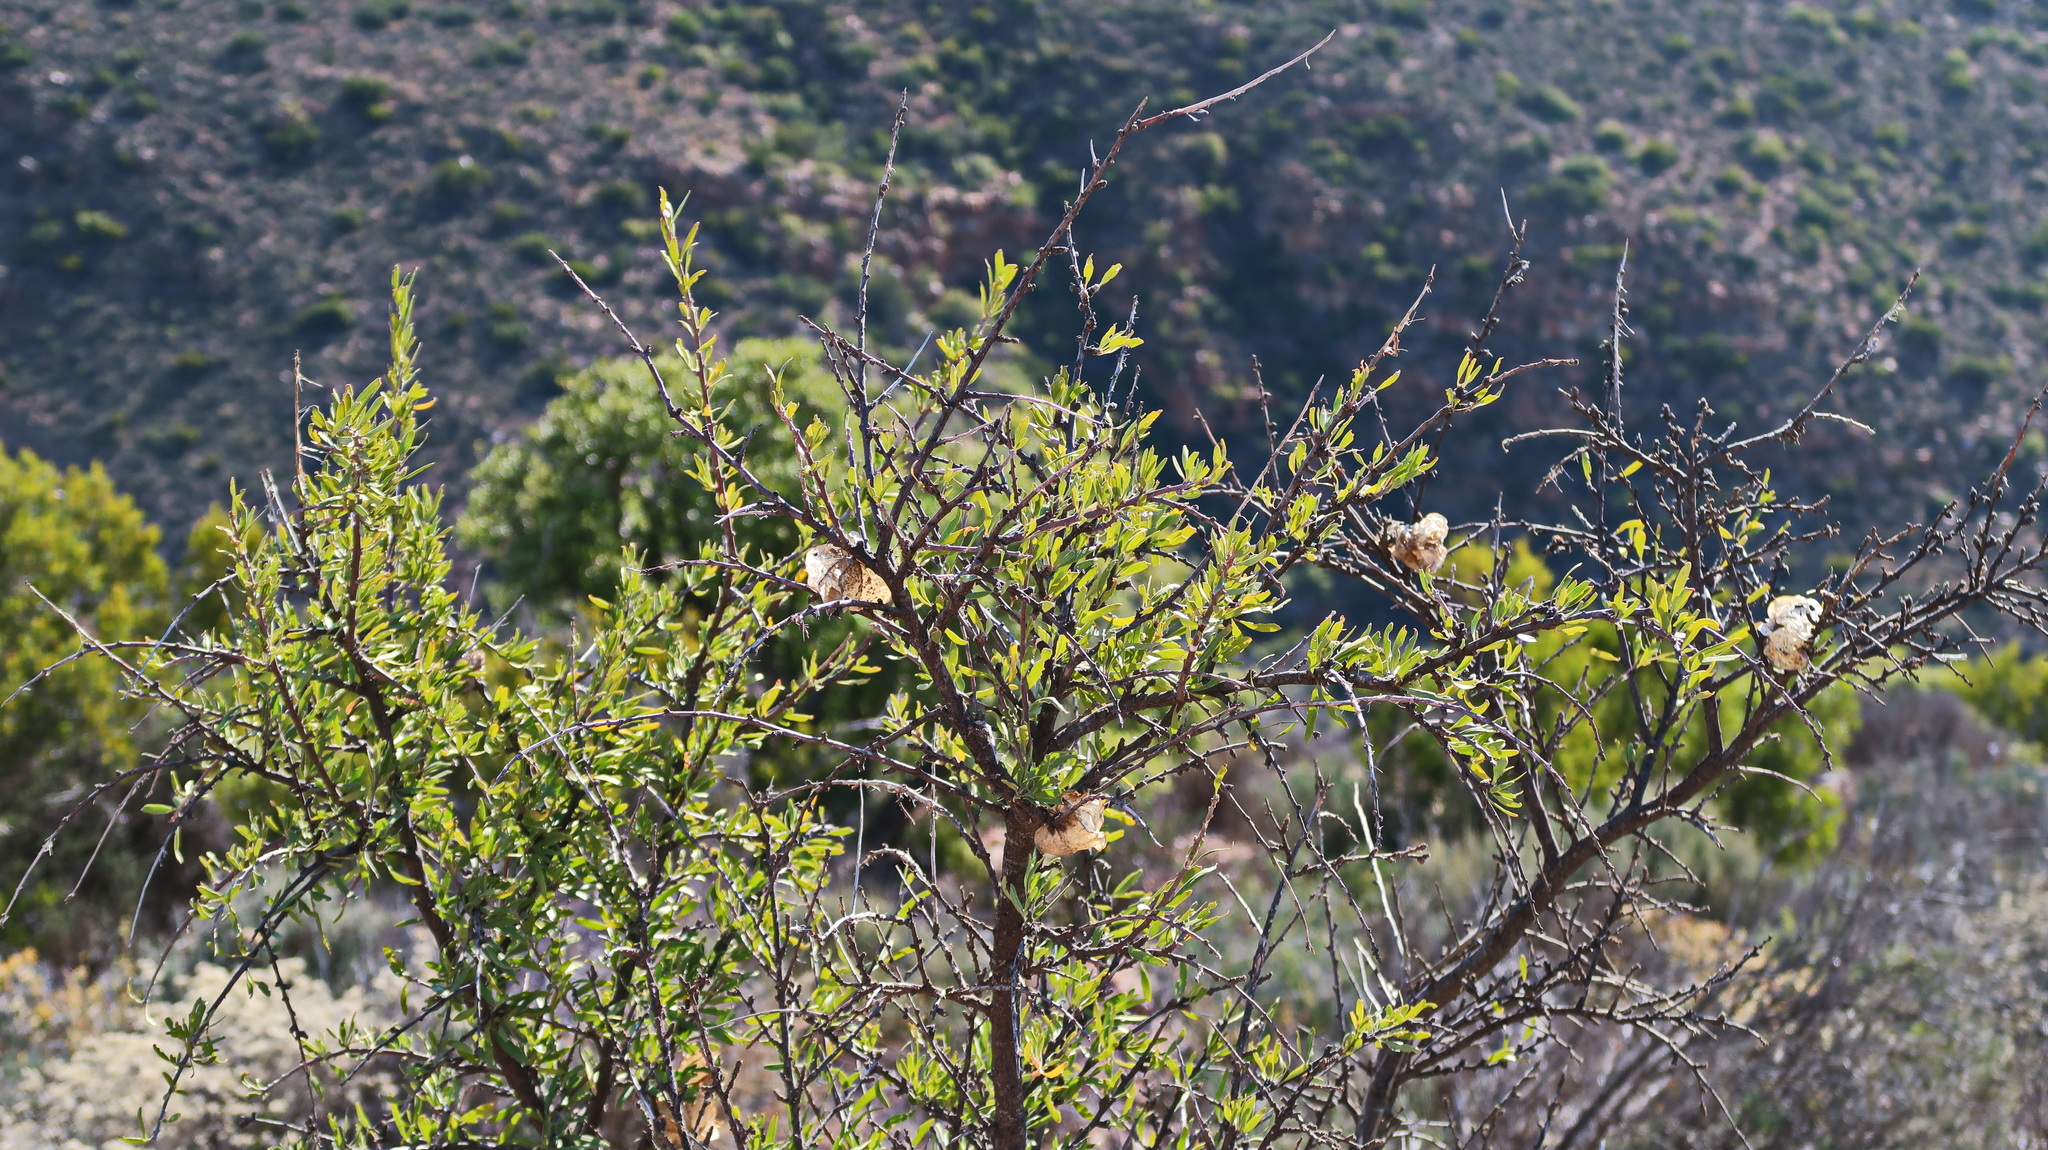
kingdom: Plantae
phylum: Tracheophyta
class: Magnoliopsida
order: Sapindales
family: Meliaceae
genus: Nymania
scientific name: Nymania capensis
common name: Chinese lantern tree
